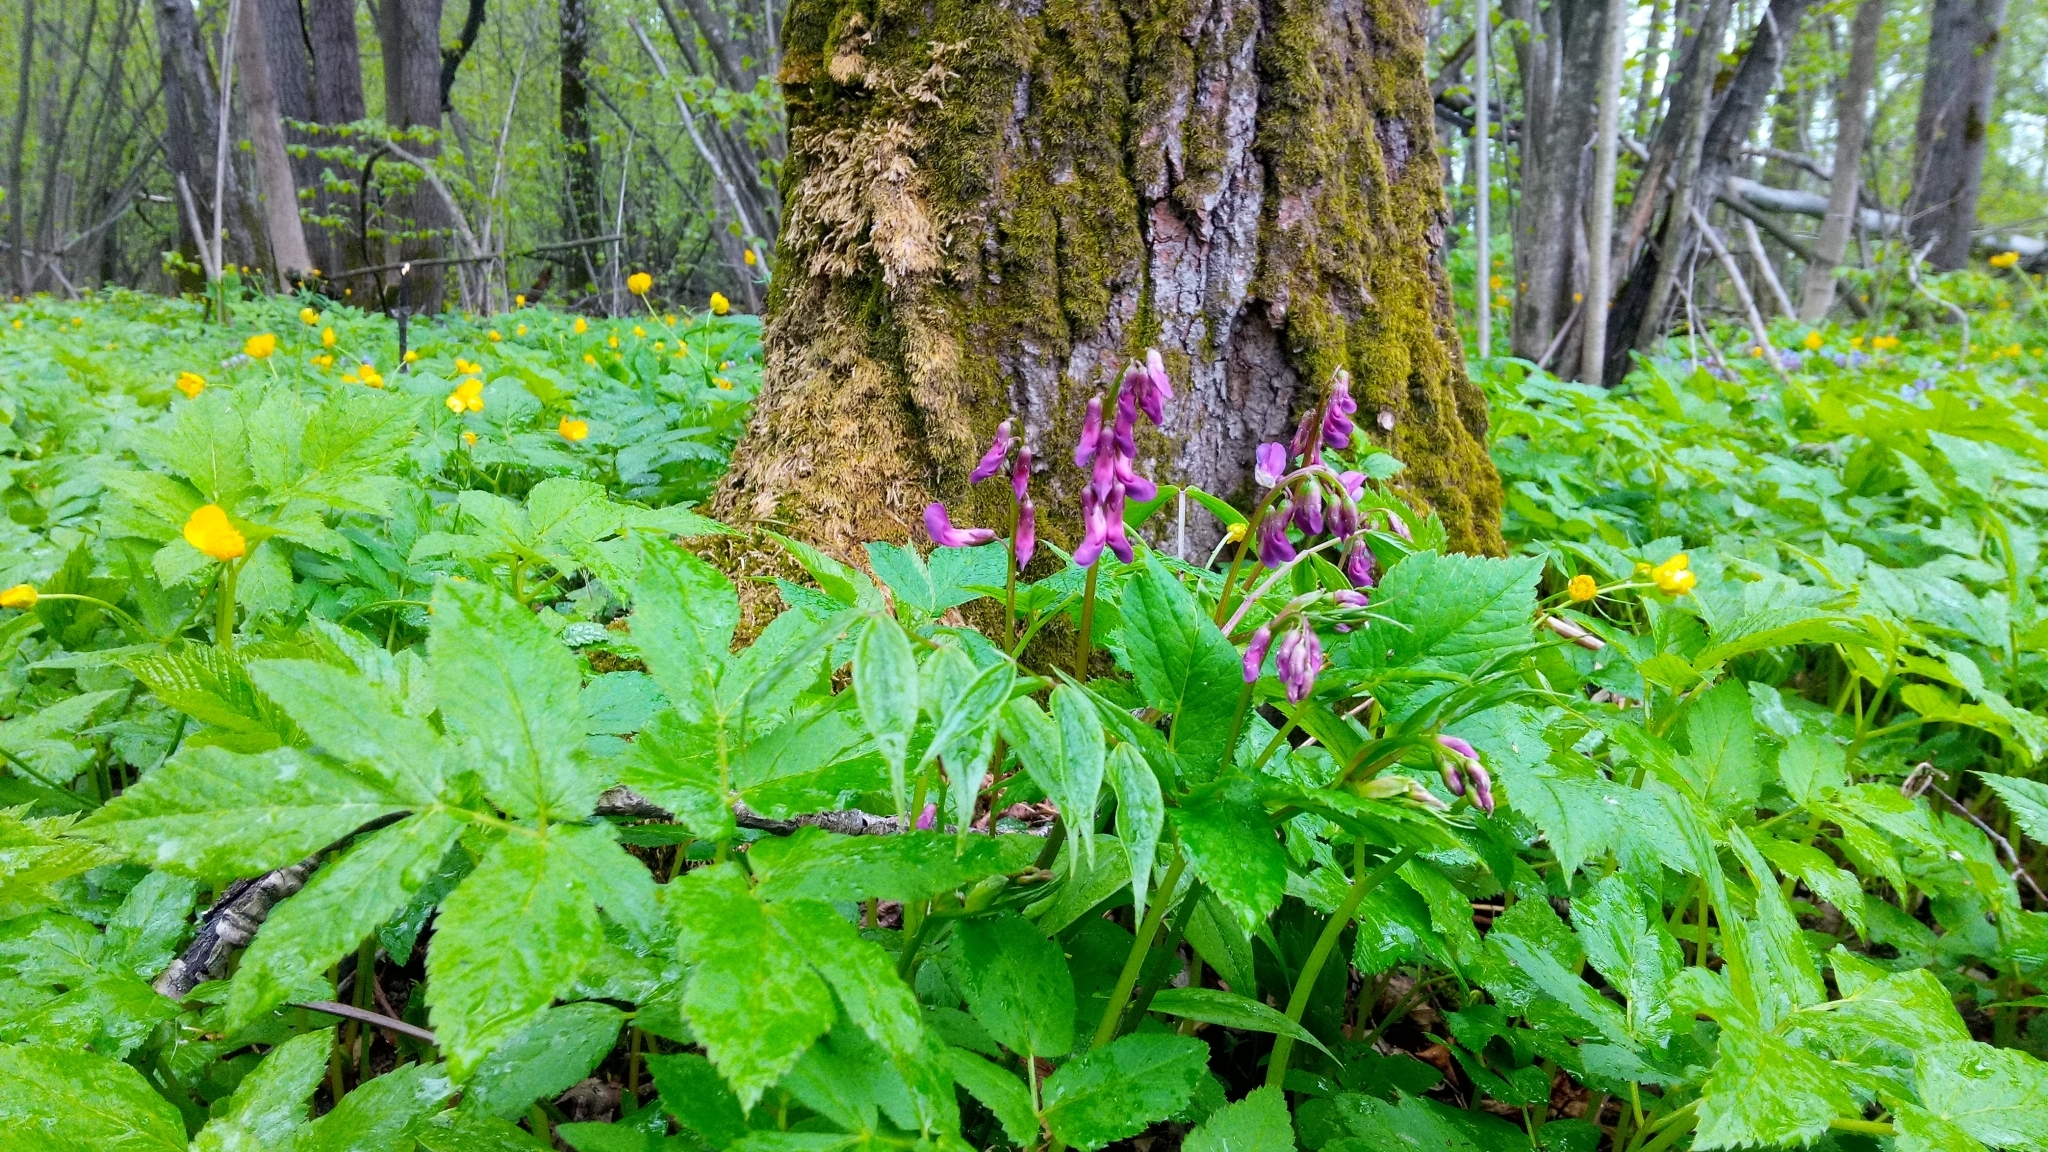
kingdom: Plantae
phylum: Tracheophyta
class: Magnoliopsida
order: Fabales
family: Fabaceae
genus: Lathyrus
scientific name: Lathyrus vernus
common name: Spring pea
